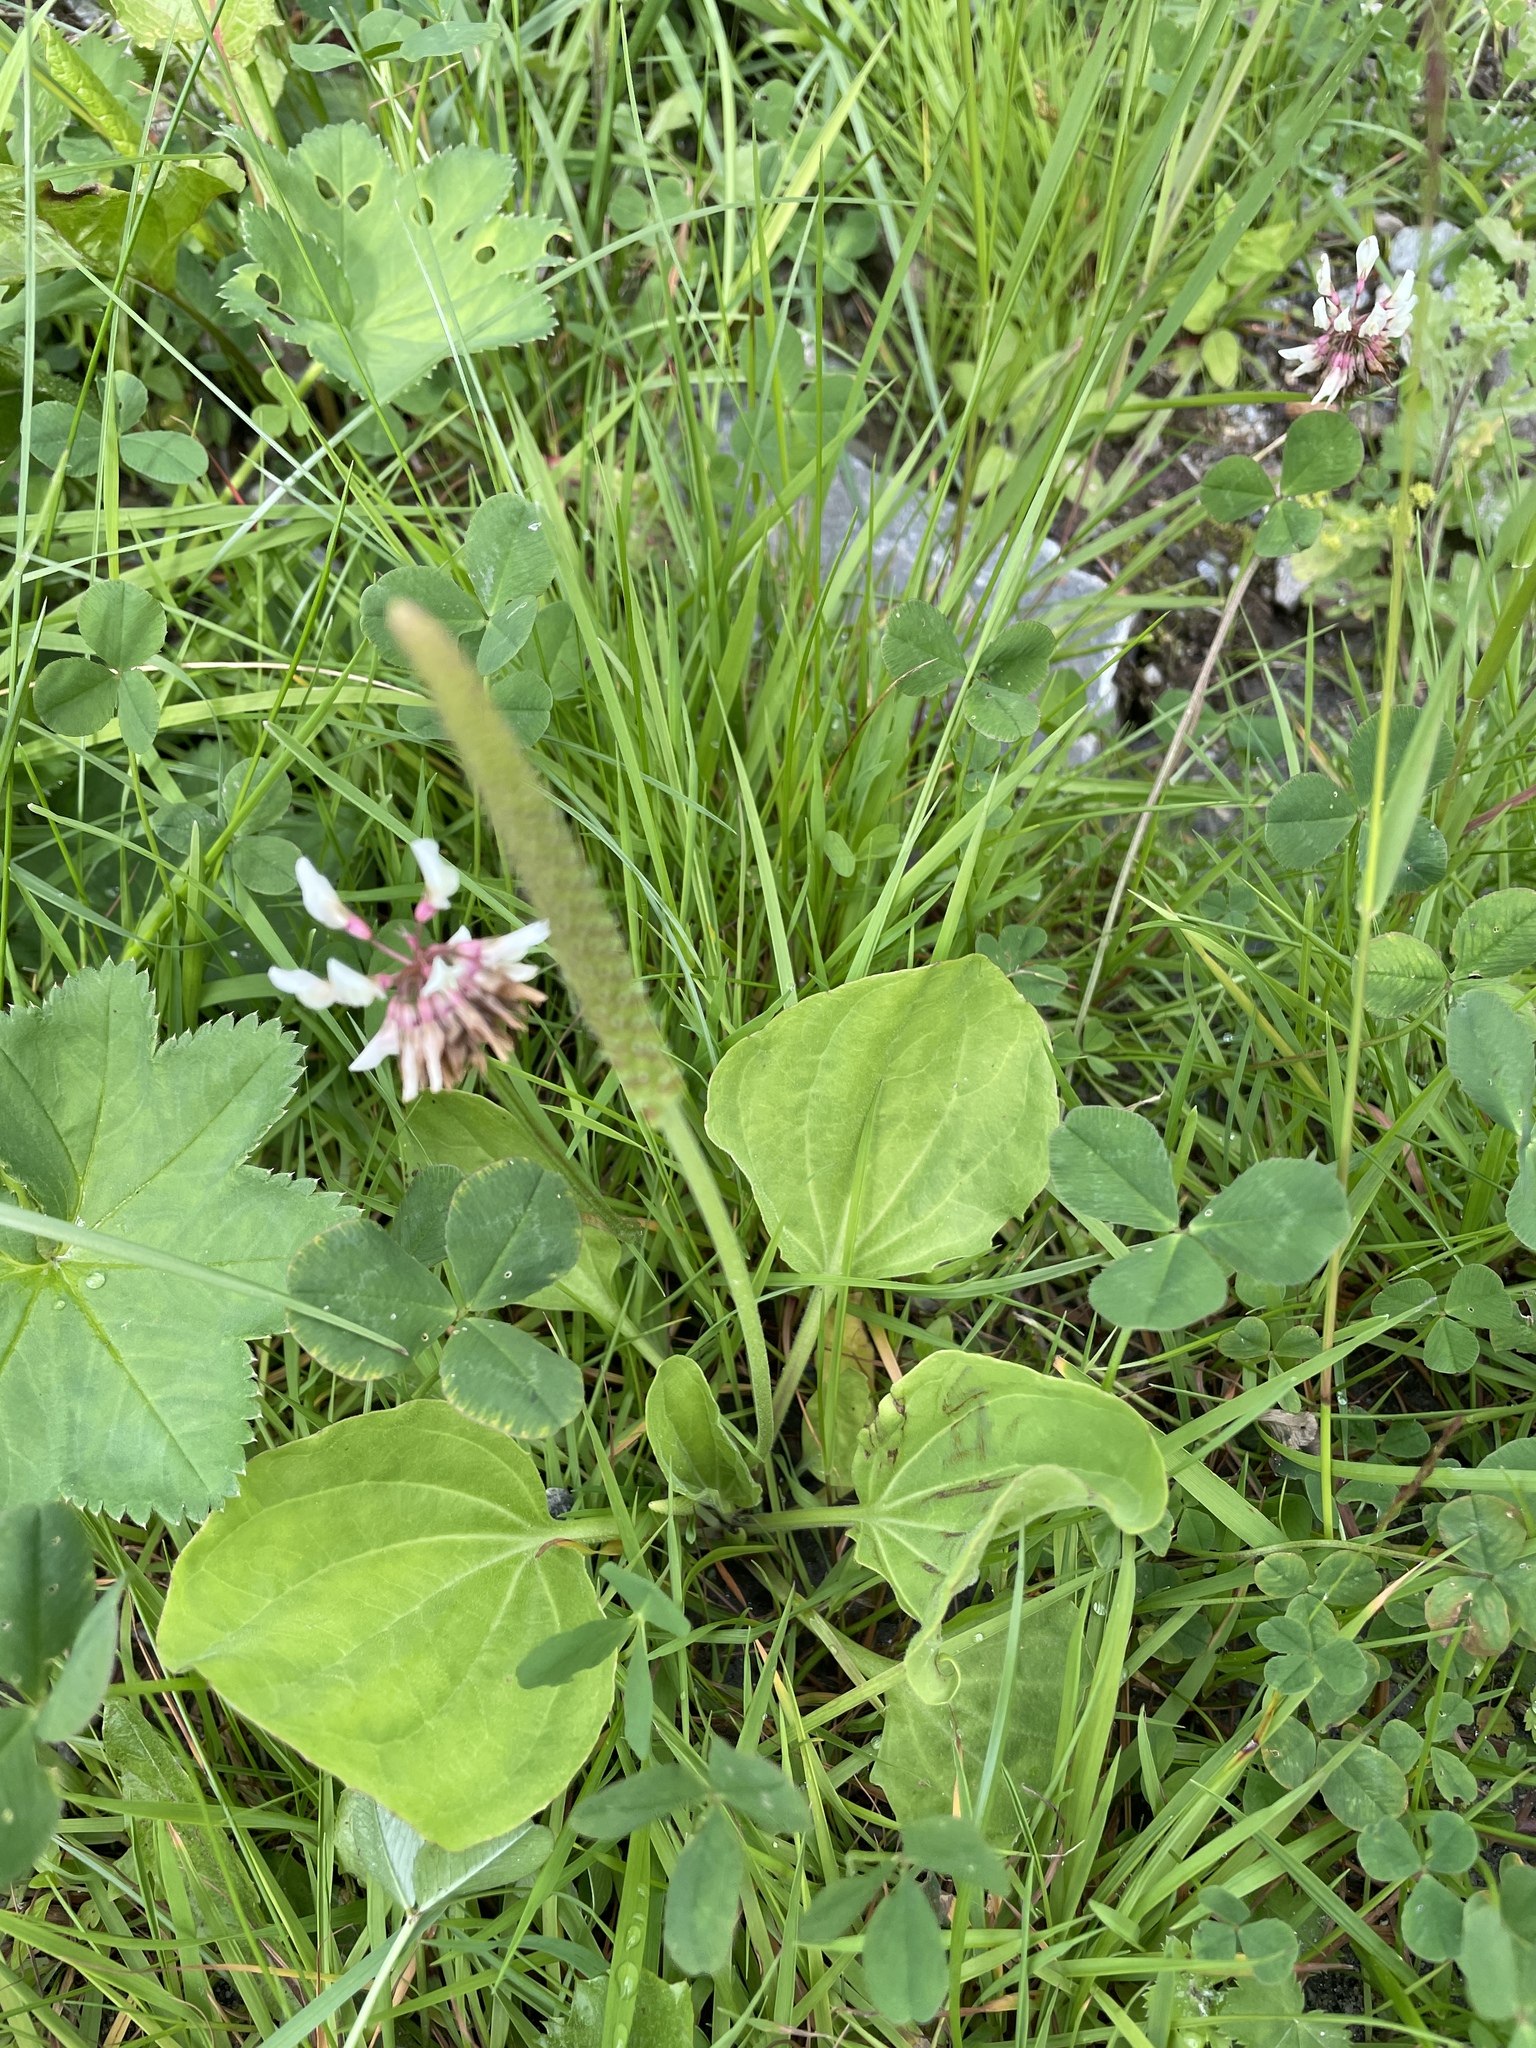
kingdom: Plantae
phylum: Tracheophyta
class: Magnoliopsida
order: Lamiales
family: Plantaginaceae
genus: Plantago
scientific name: Plantago major
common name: Common plantain
